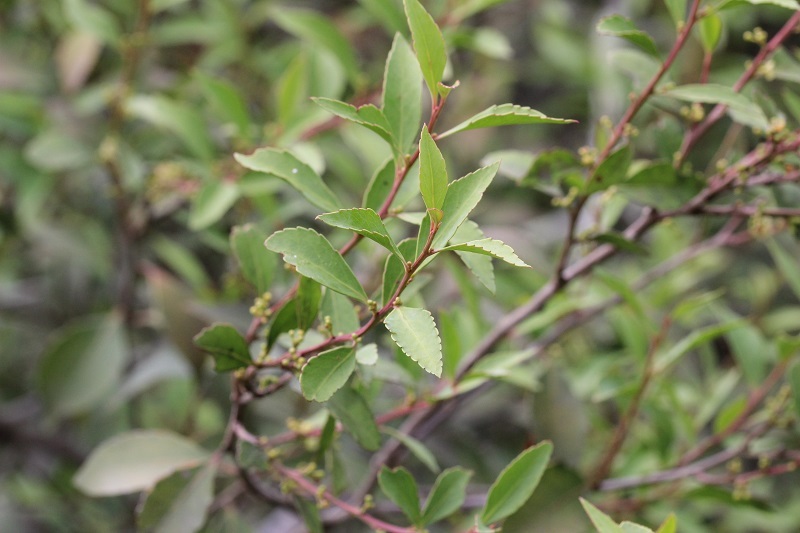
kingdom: Plantae
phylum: Tracheophyta
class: Magnoliopsida
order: Celastrales
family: Celastraceae
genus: Gymnosporia
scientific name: Gymnosporia acuminata
